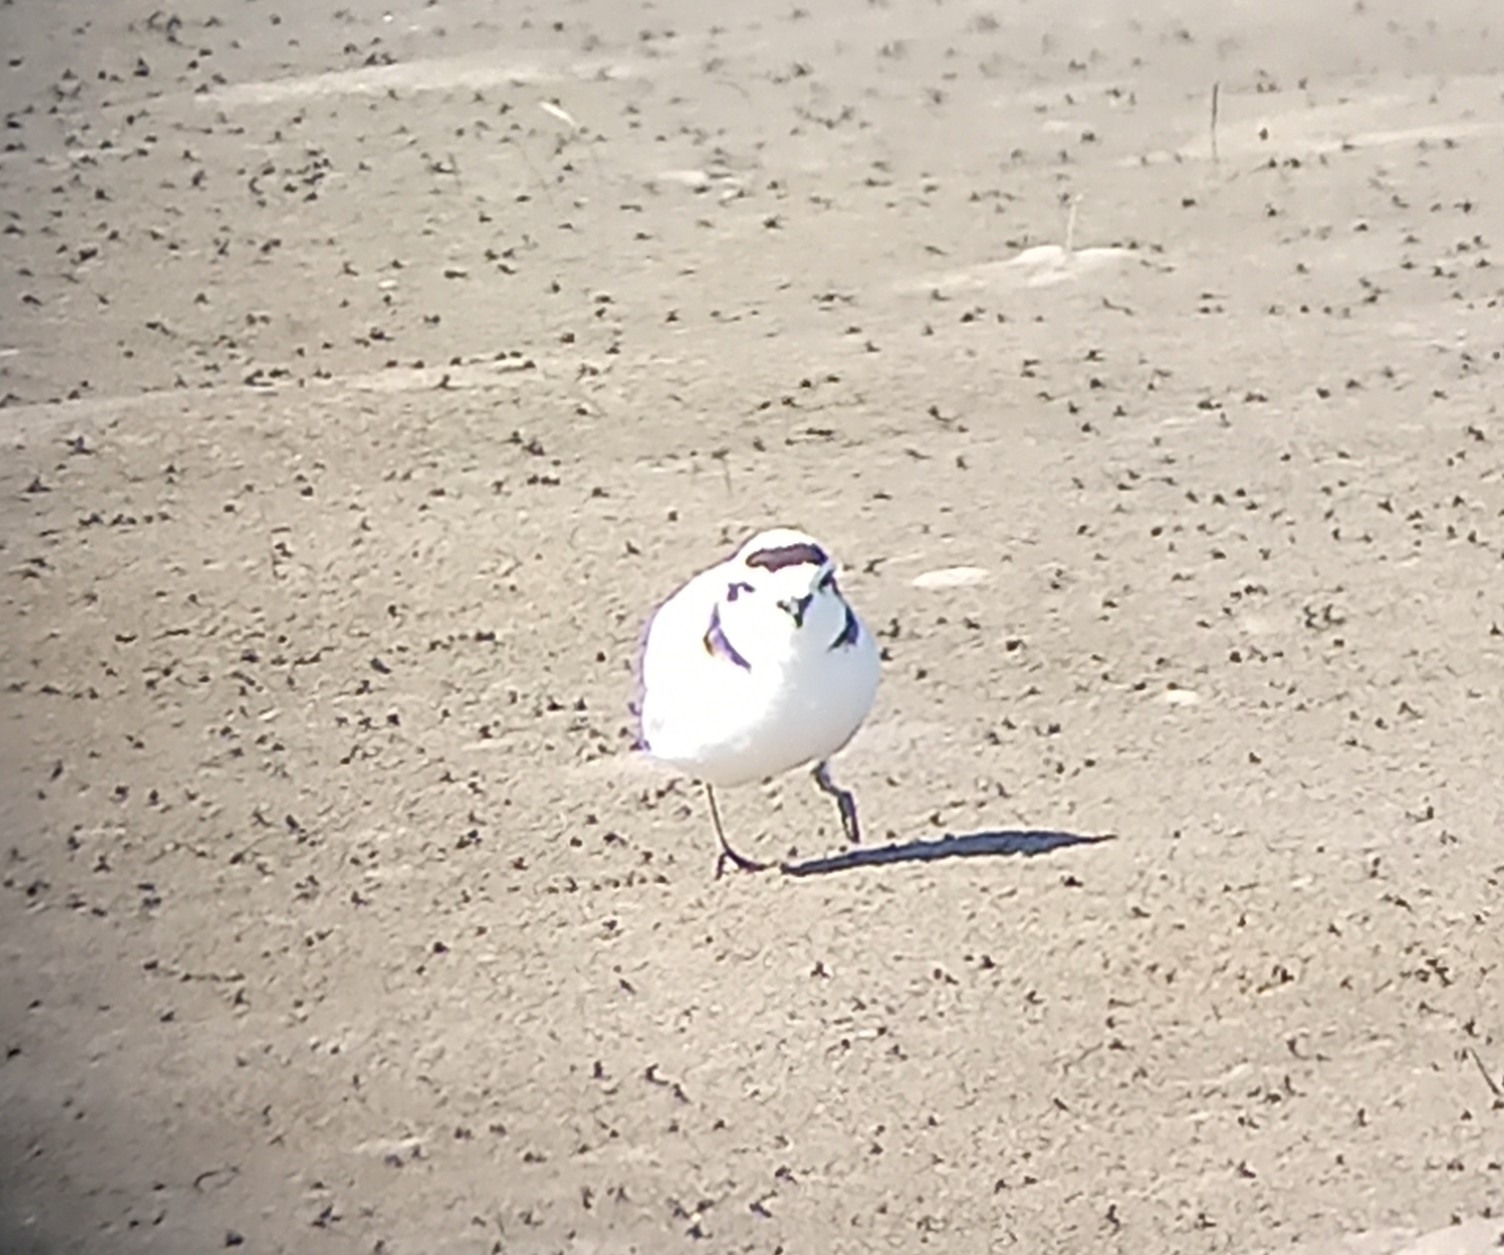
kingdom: Animalia
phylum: Chordata
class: Aves
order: Charadriiformes
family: Charadriidae
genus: Anarhynchus
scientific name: Anarhynchus
